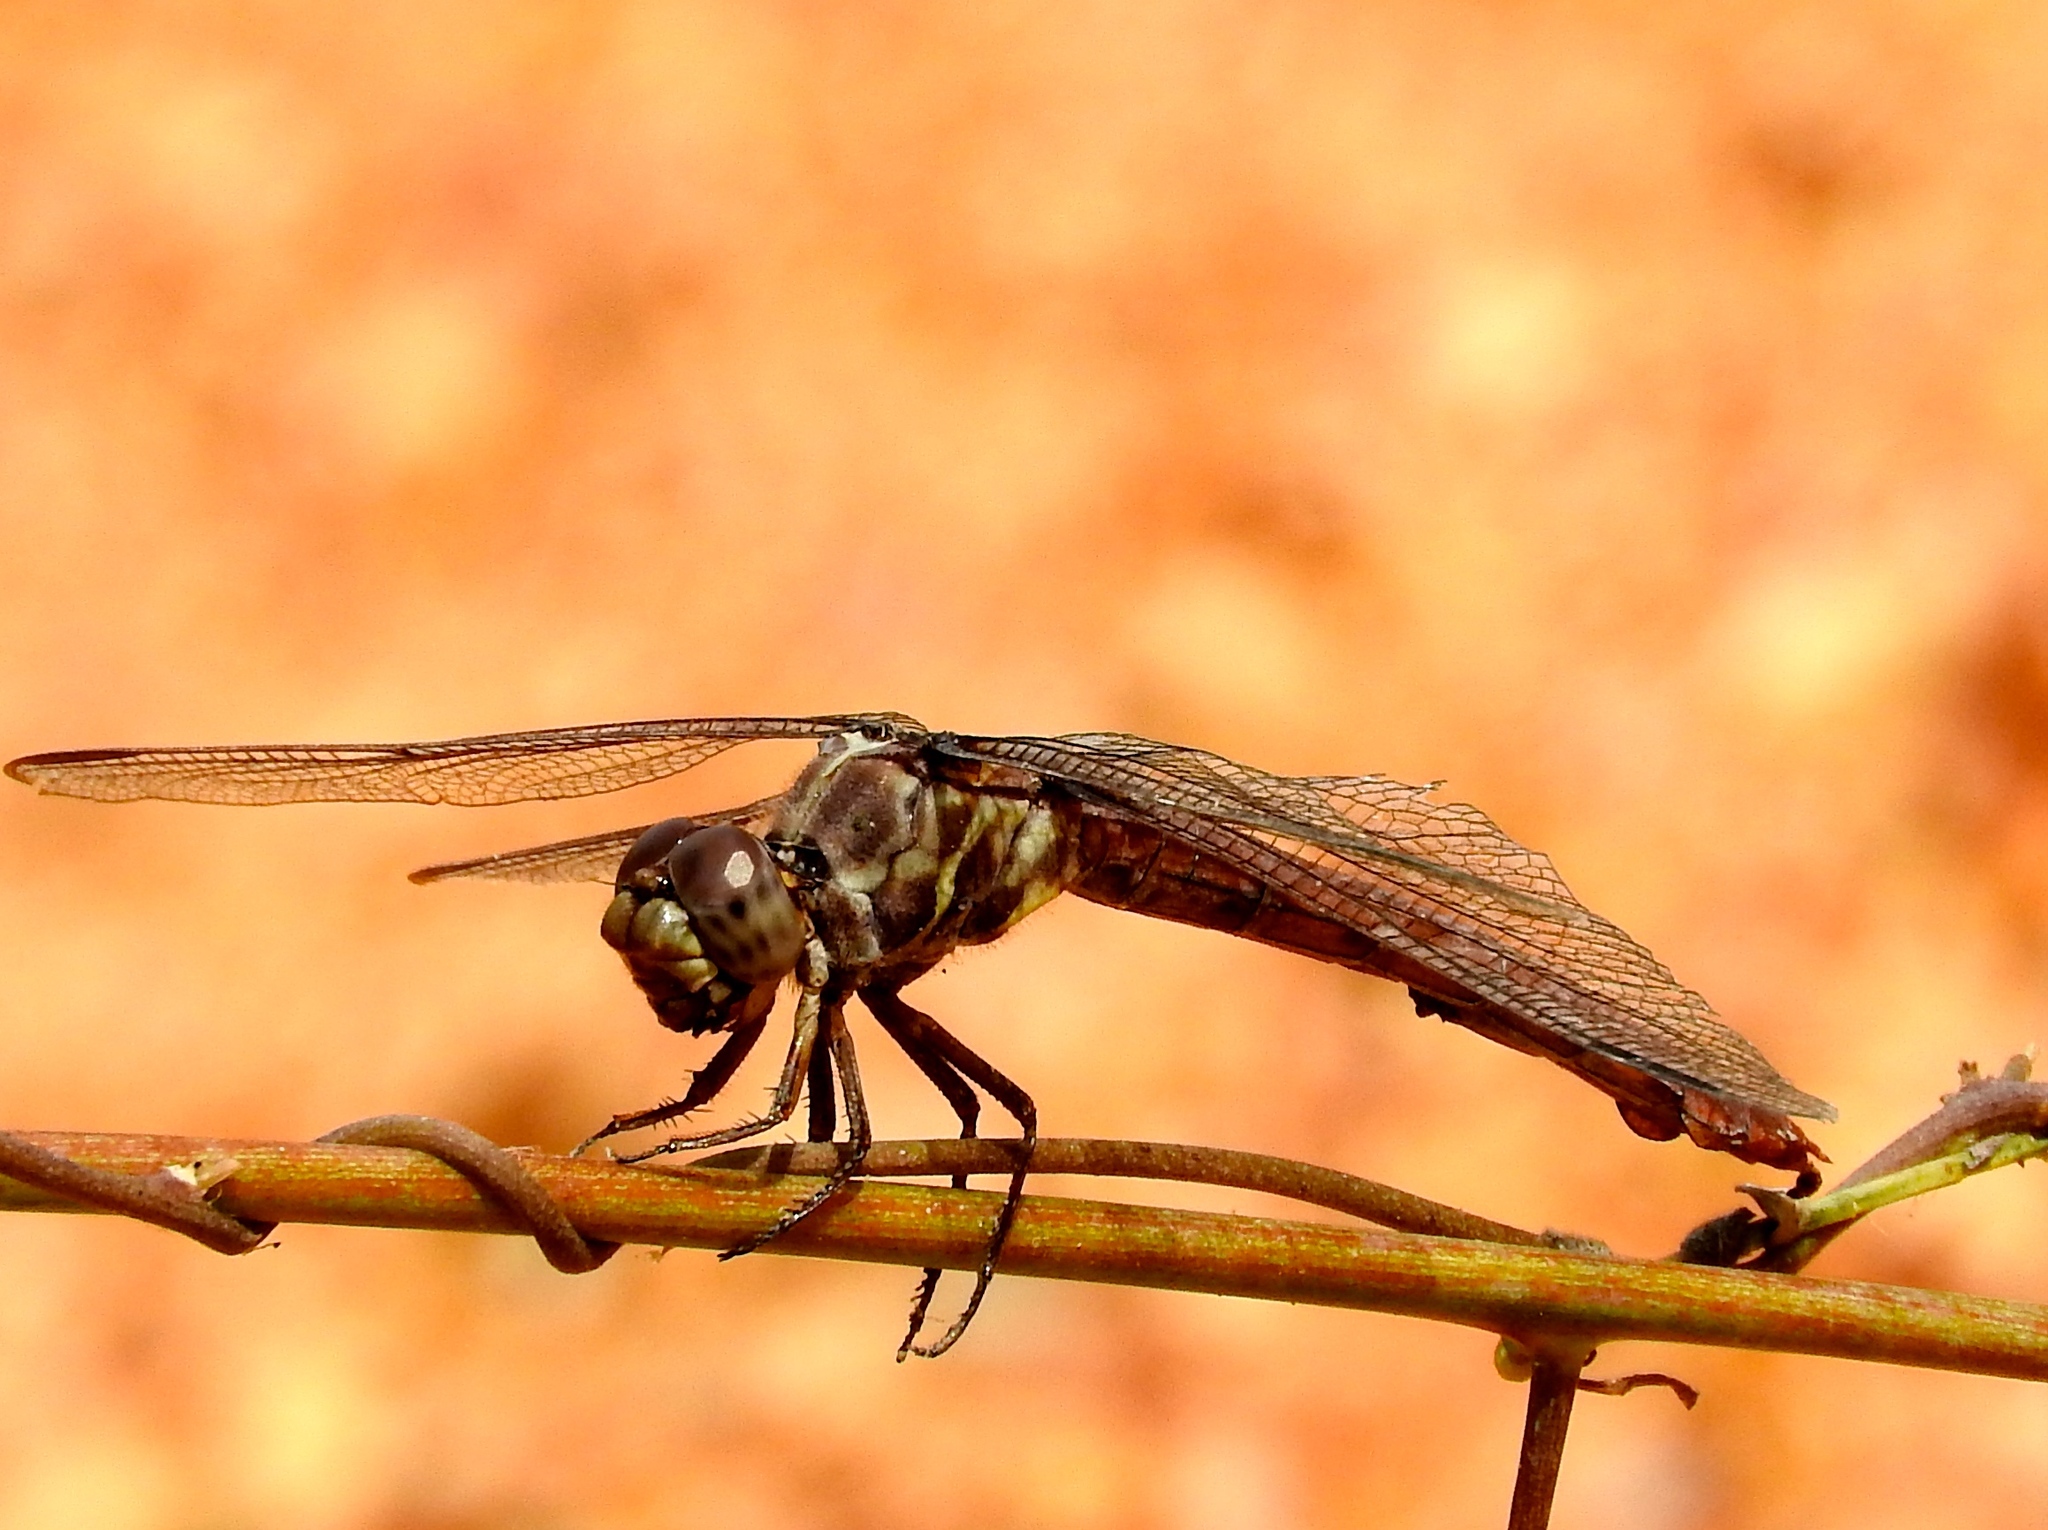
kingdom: Animalia
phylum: Arthropoda
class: Insecta
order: Odonata
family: Libellulidae
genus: Orthemis
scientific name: Orthemis ferruginea
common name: Roseate skimmer
